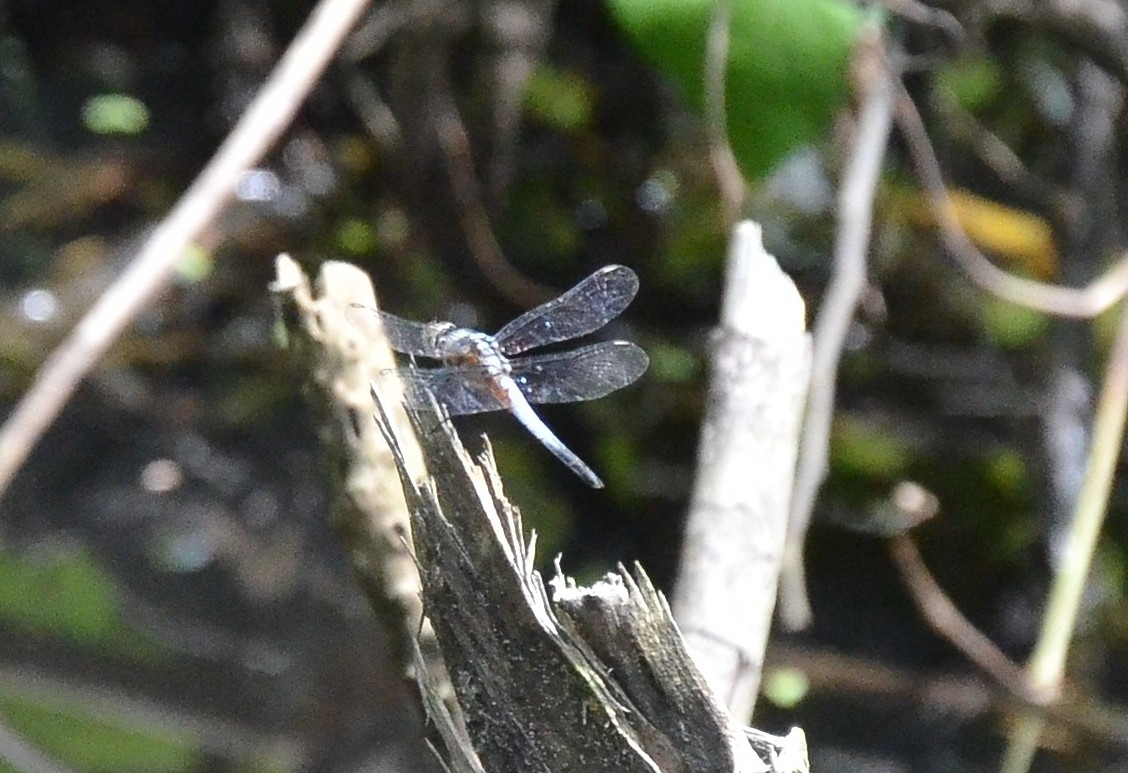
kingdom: Animalia
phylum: Arthropoda
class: Insecta
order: Odonata
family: Libellulidae
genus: Brachydiplax
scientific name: Brachydiplax chalybea
